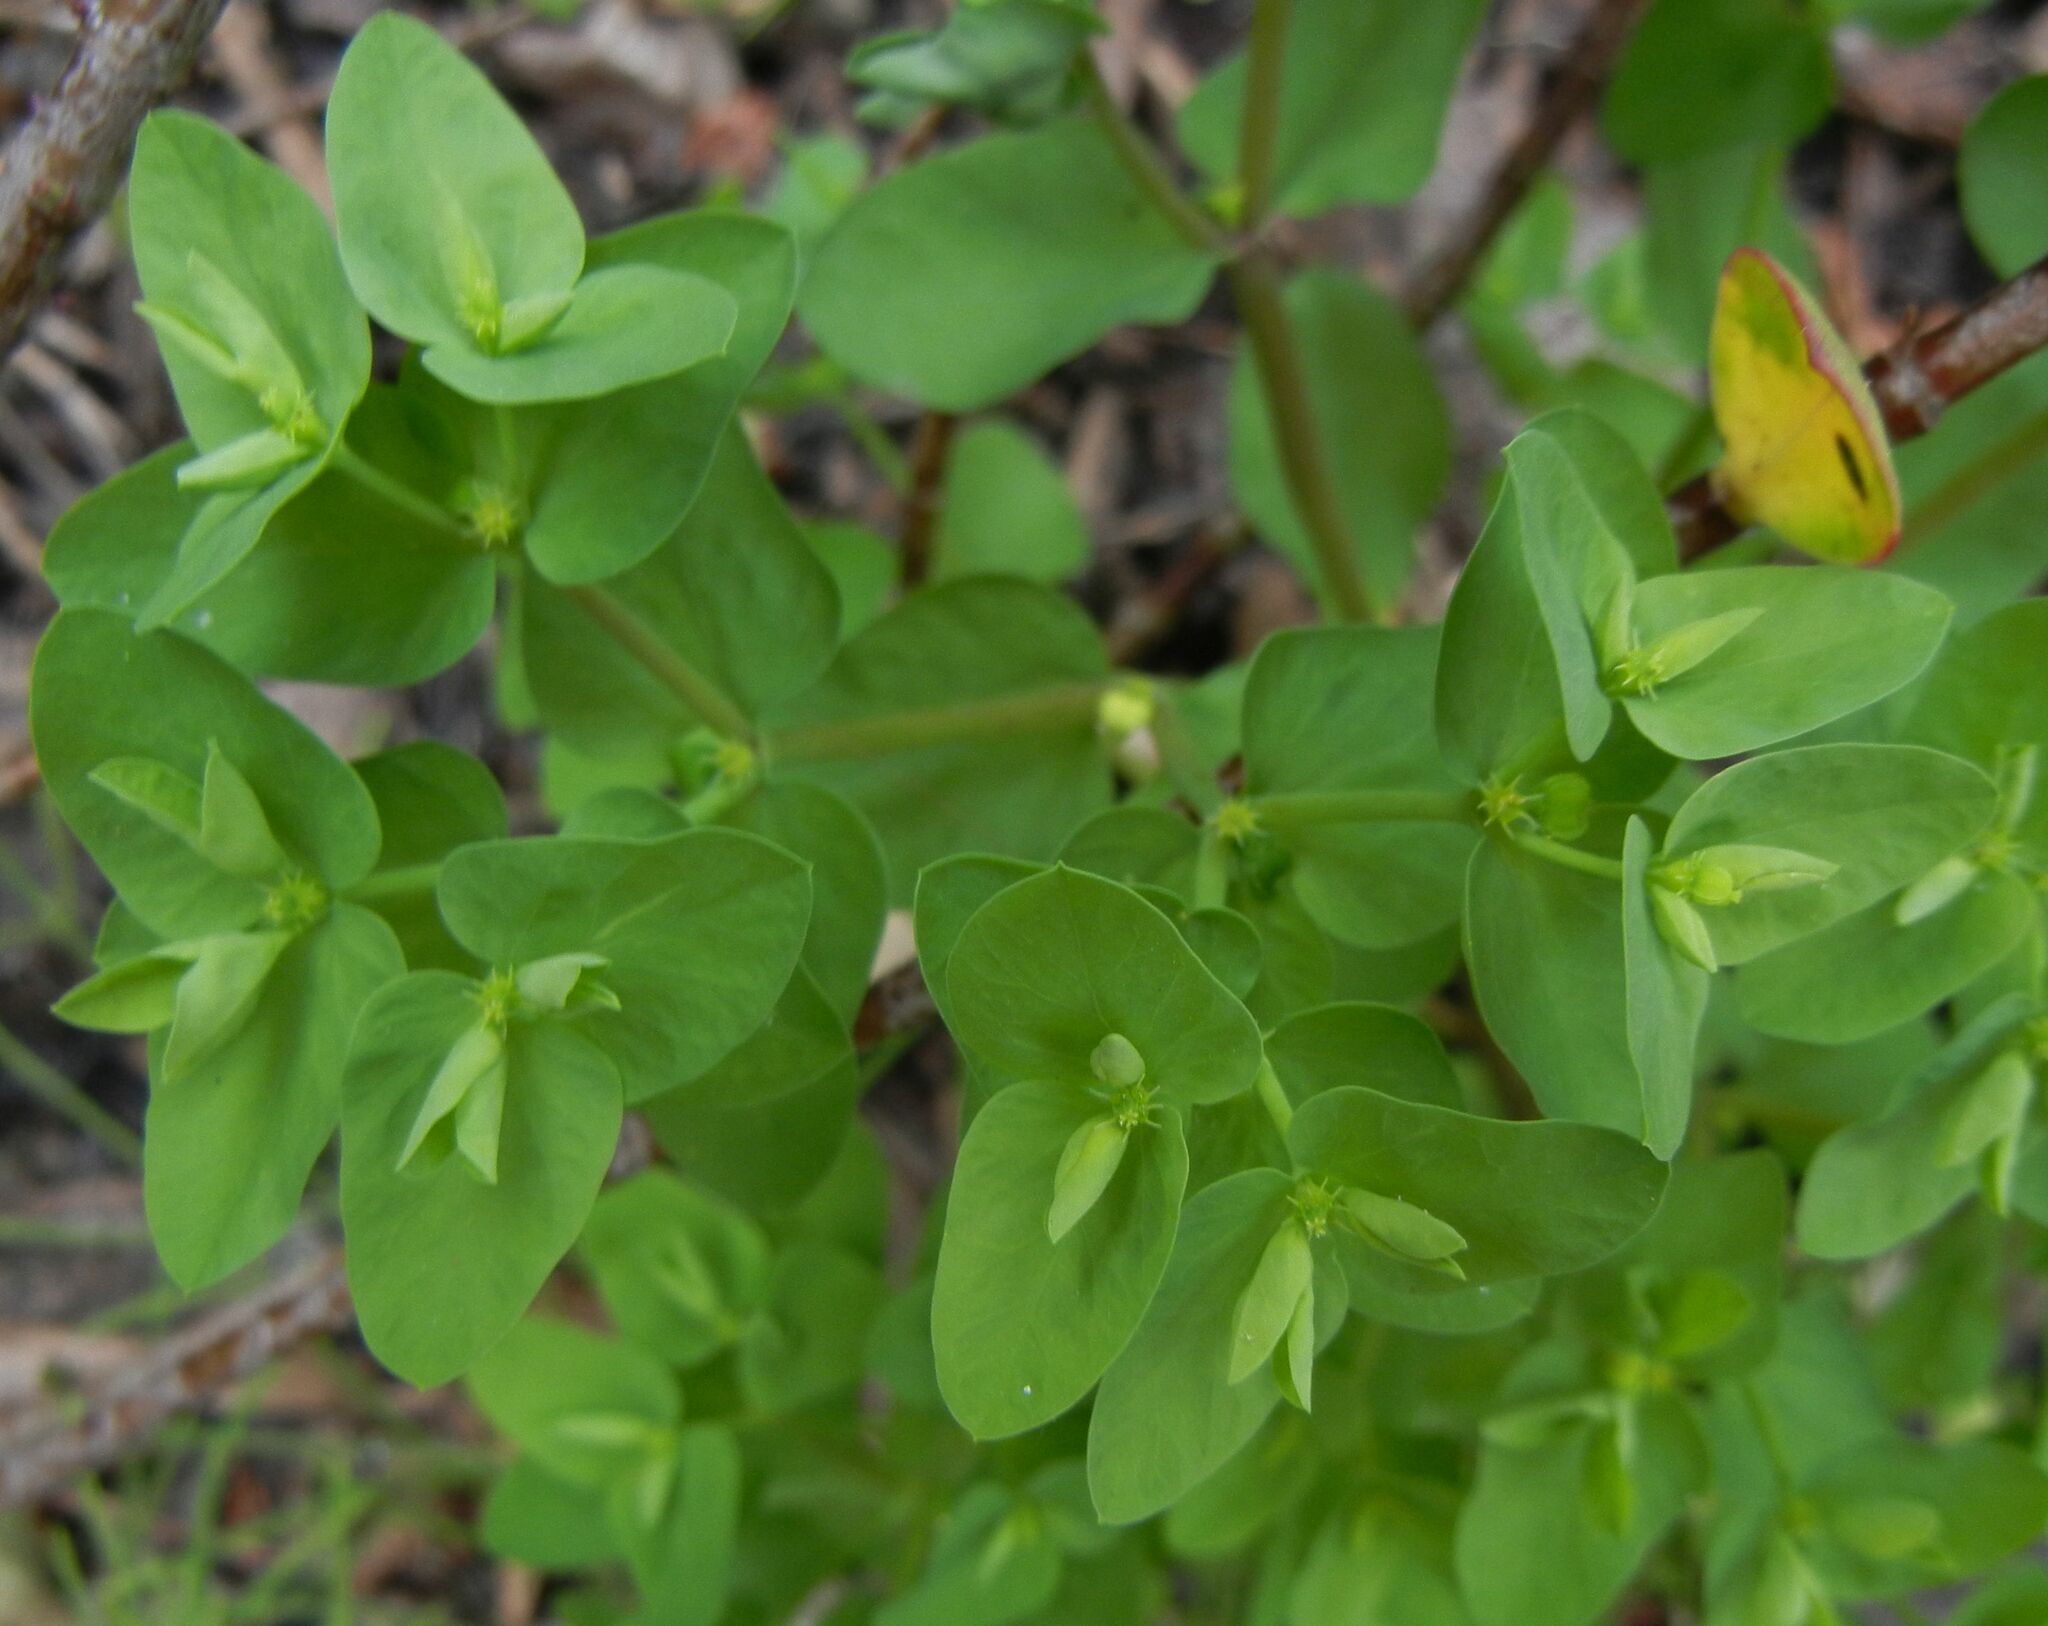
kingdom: Plantae
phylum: Tracheophyta
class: Magnoliopsida
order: Malpighiales
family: Euphorbiaceae
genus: Euphorbia
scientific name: Euphorbia peplus
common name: Petty spurge
